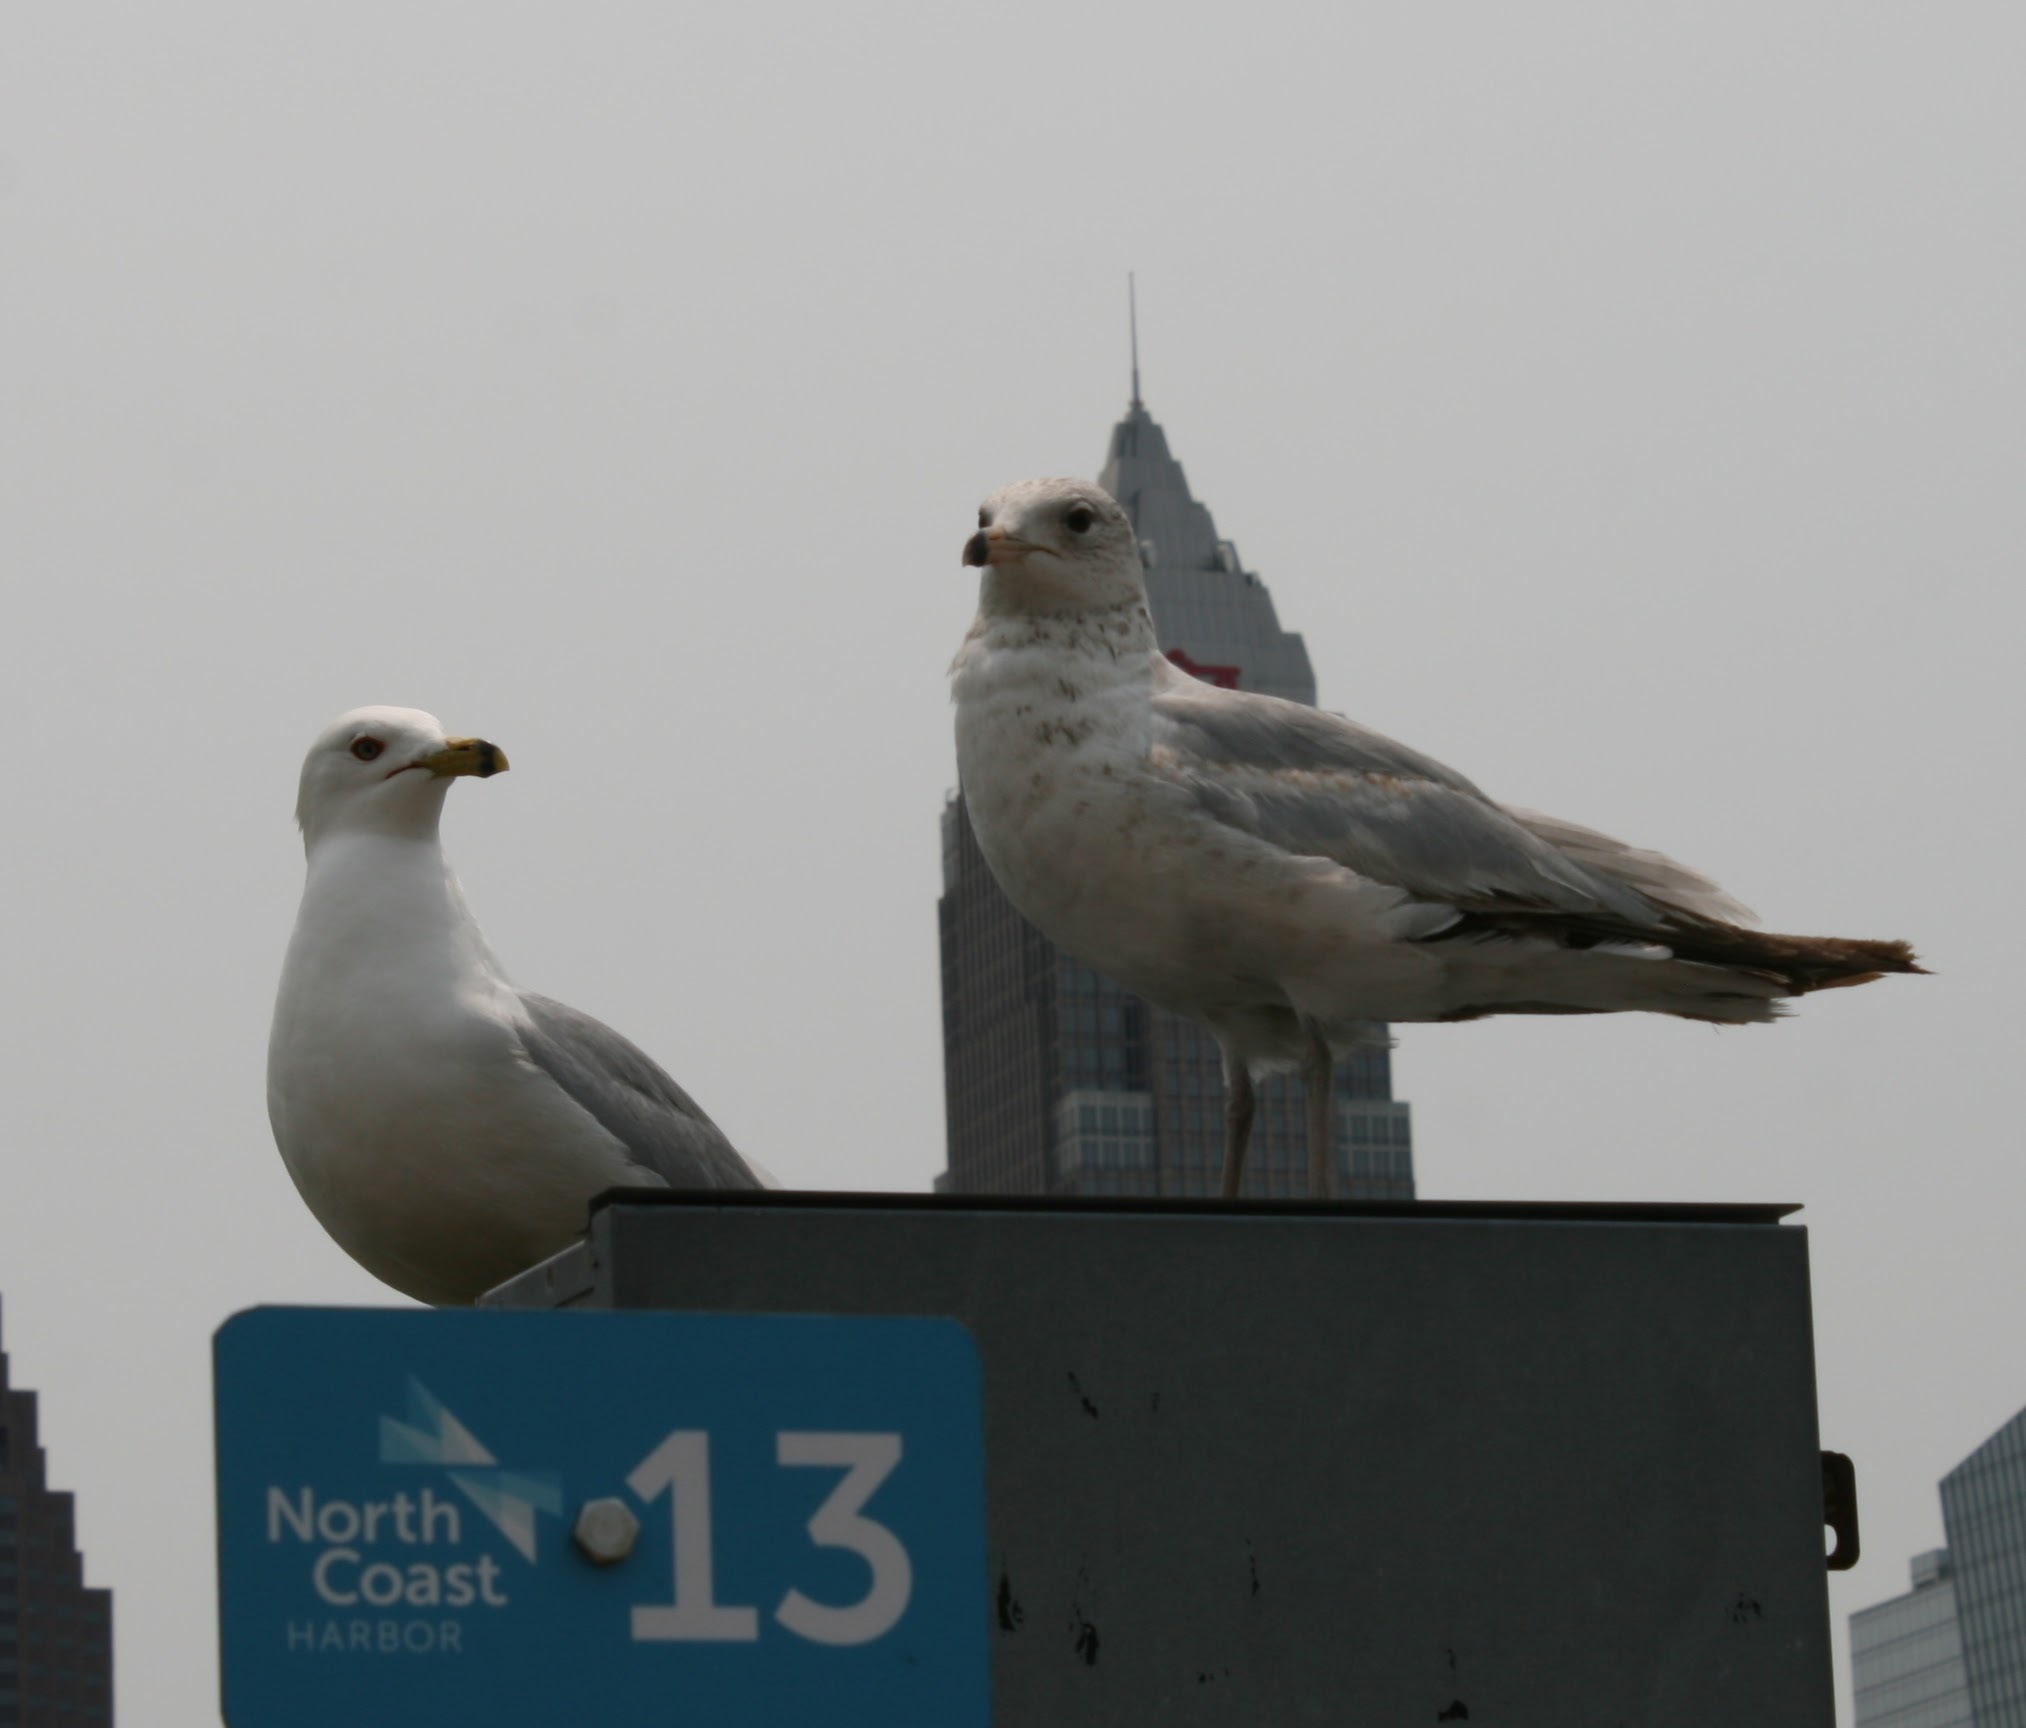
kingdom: Animalia
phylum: Chordata
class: Aves
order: Charadriiformes
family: Laridae
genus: Larus
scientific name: Larus delawarensis
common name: Ring-billed gull
